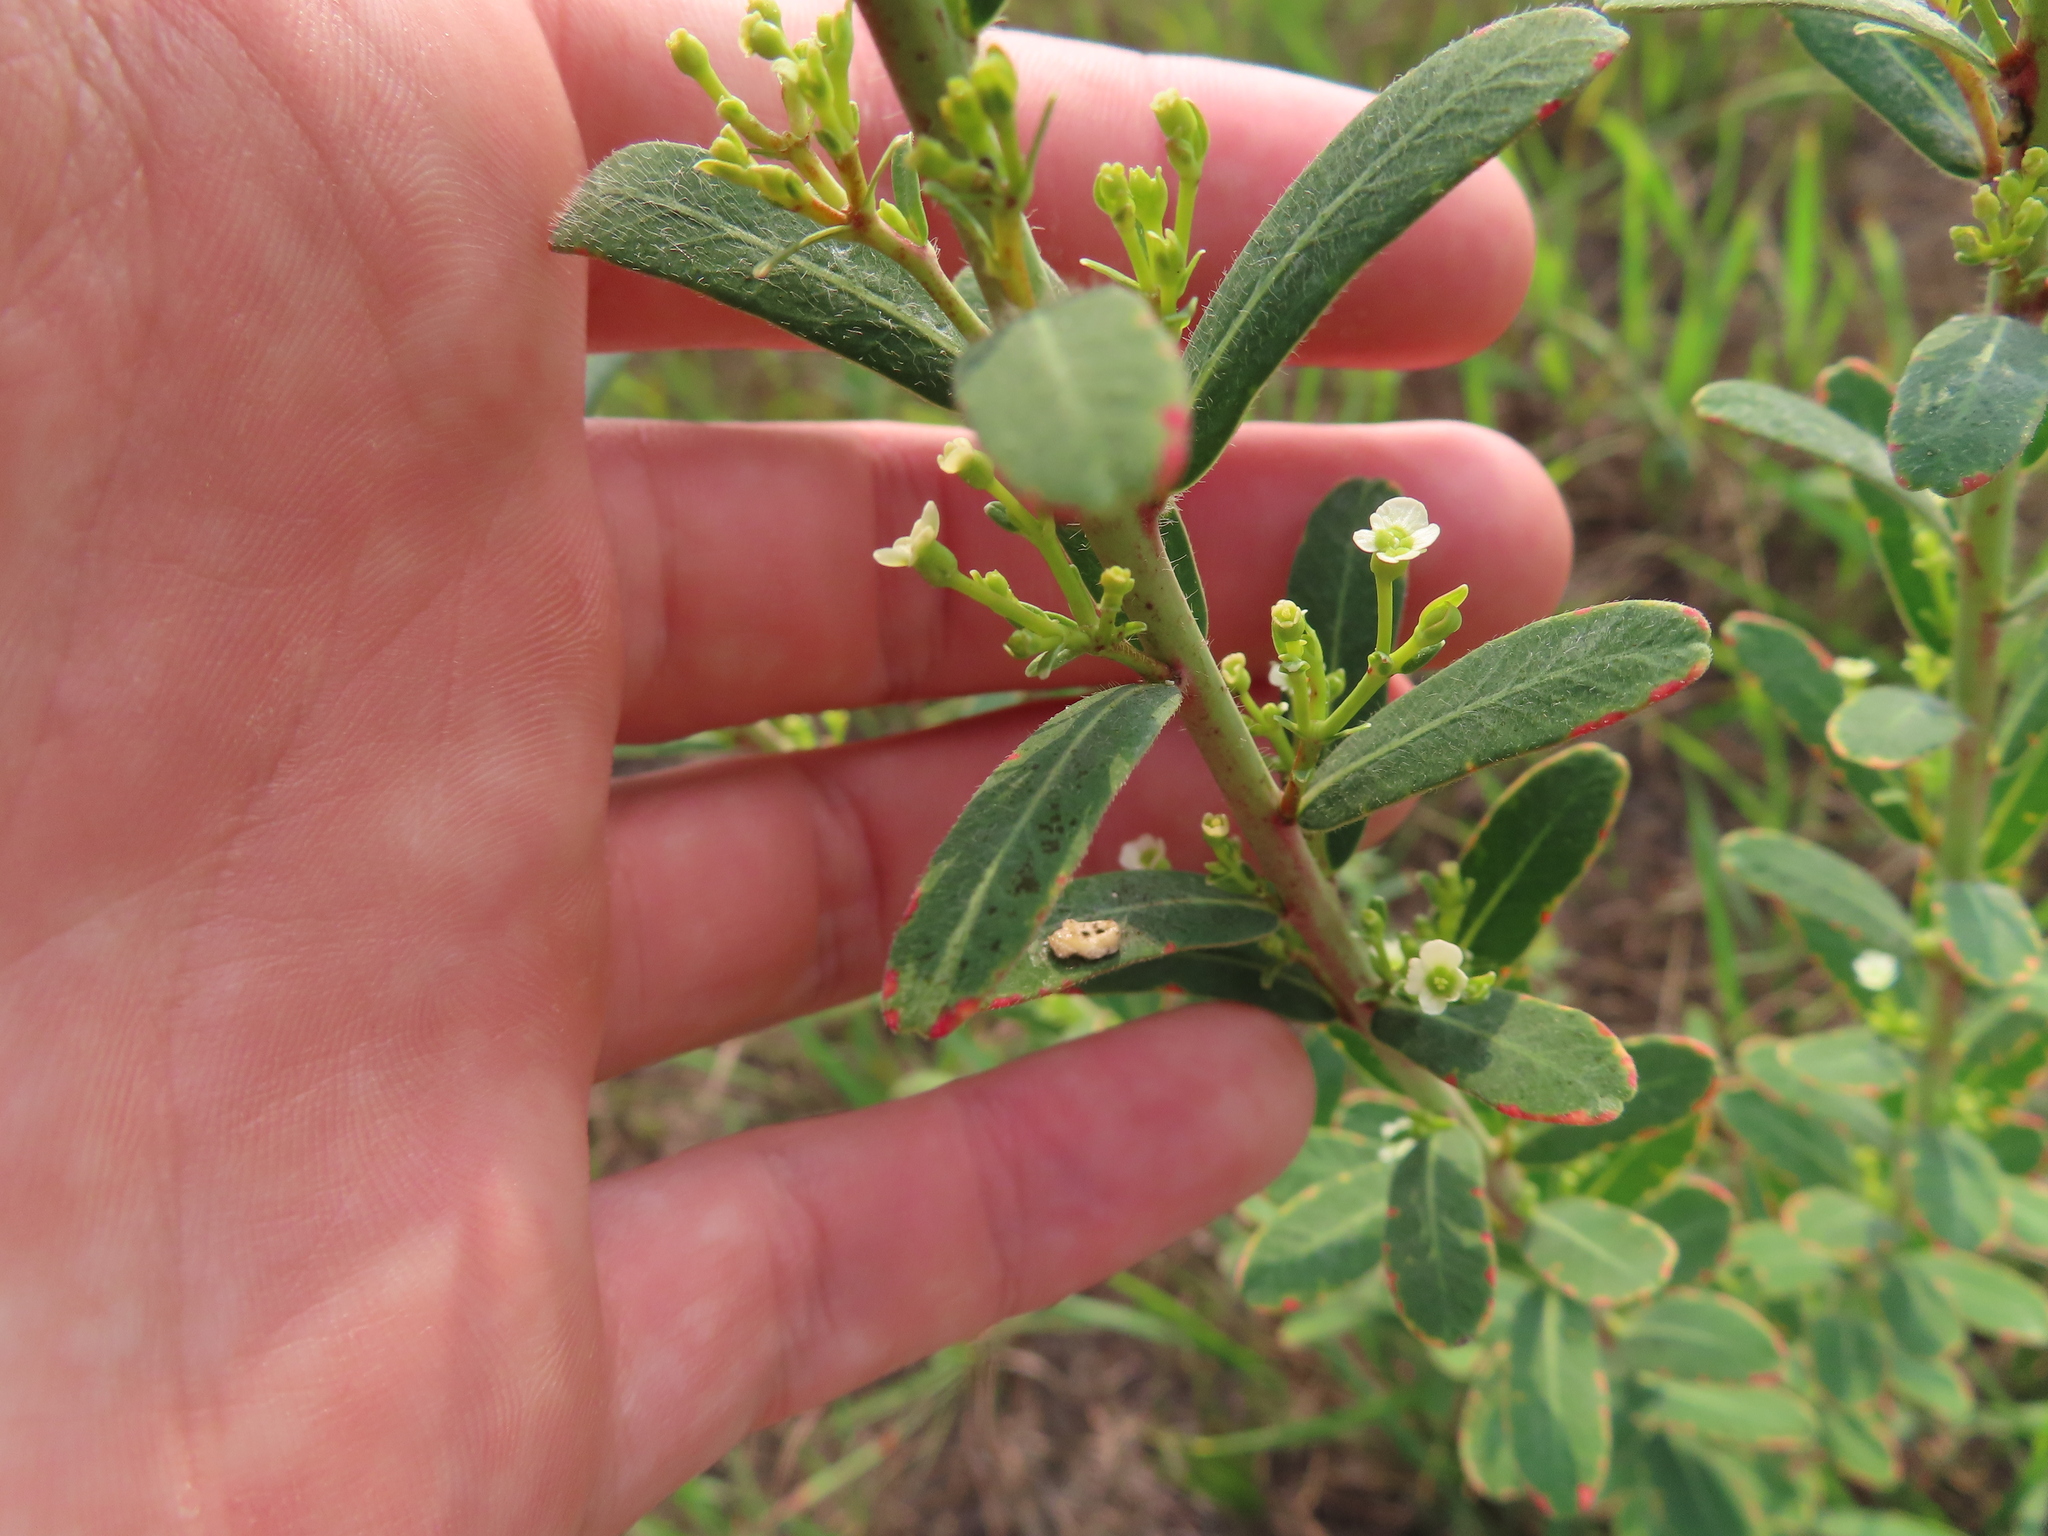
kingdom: Plantae
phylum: Tracheophyta
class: Magnoliopsida
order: Malpighiales
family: Euphorbiaceae
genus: Euphorbia
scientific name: Euphorbia corollata
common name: Flowering spurge
